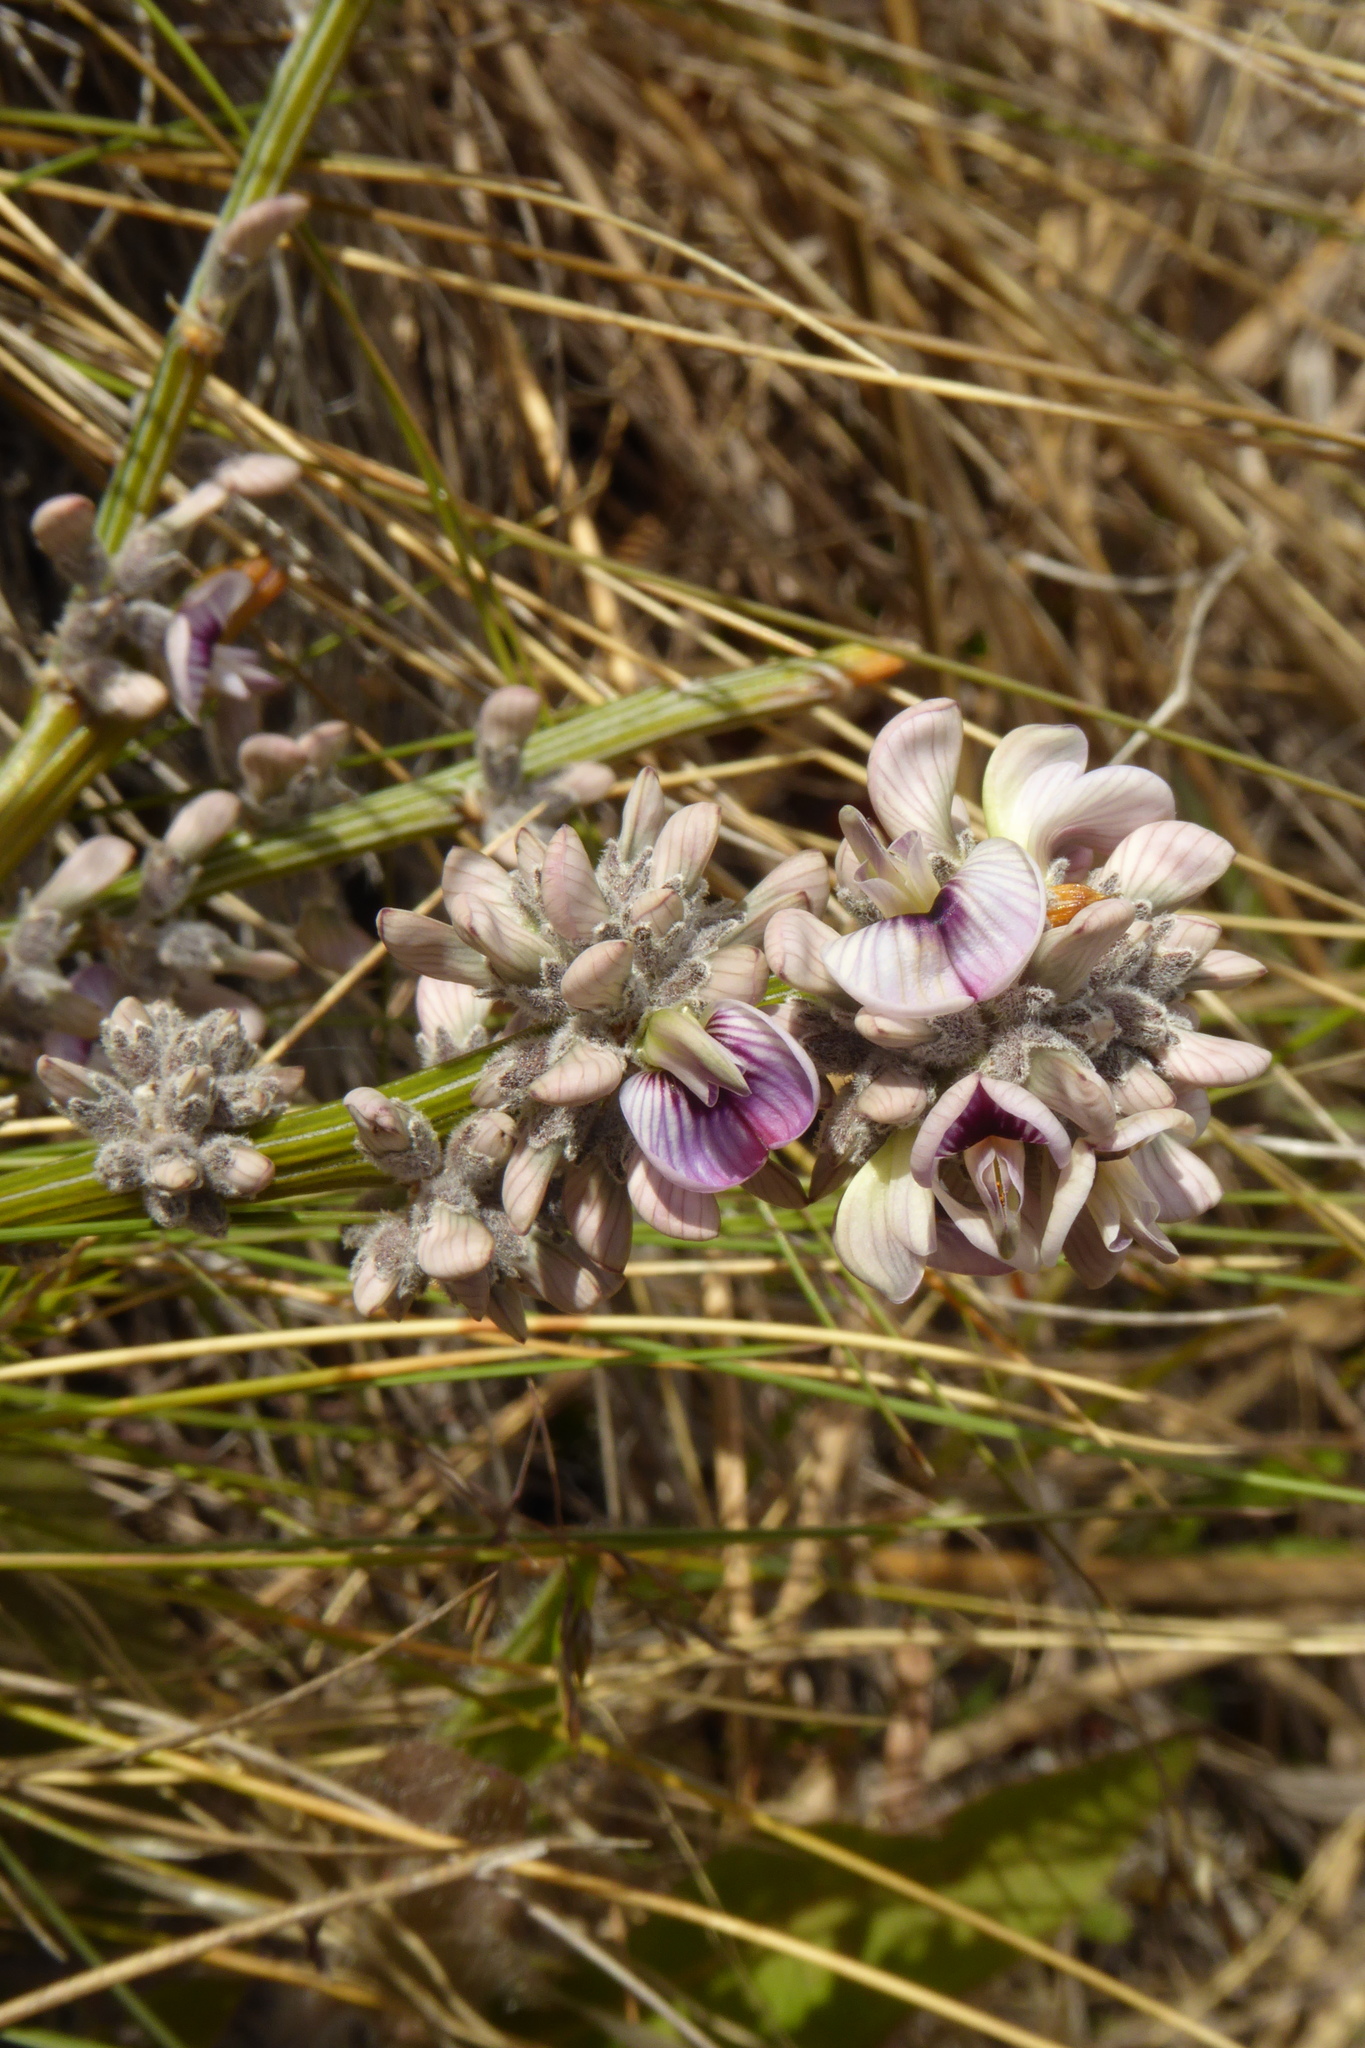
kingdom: Plantae
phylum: Tracheophyta
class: Magnoliopsida
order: Fabales
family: Fabaceae
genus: Carmichaelia
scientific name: Carmichaelia crassicaulis
